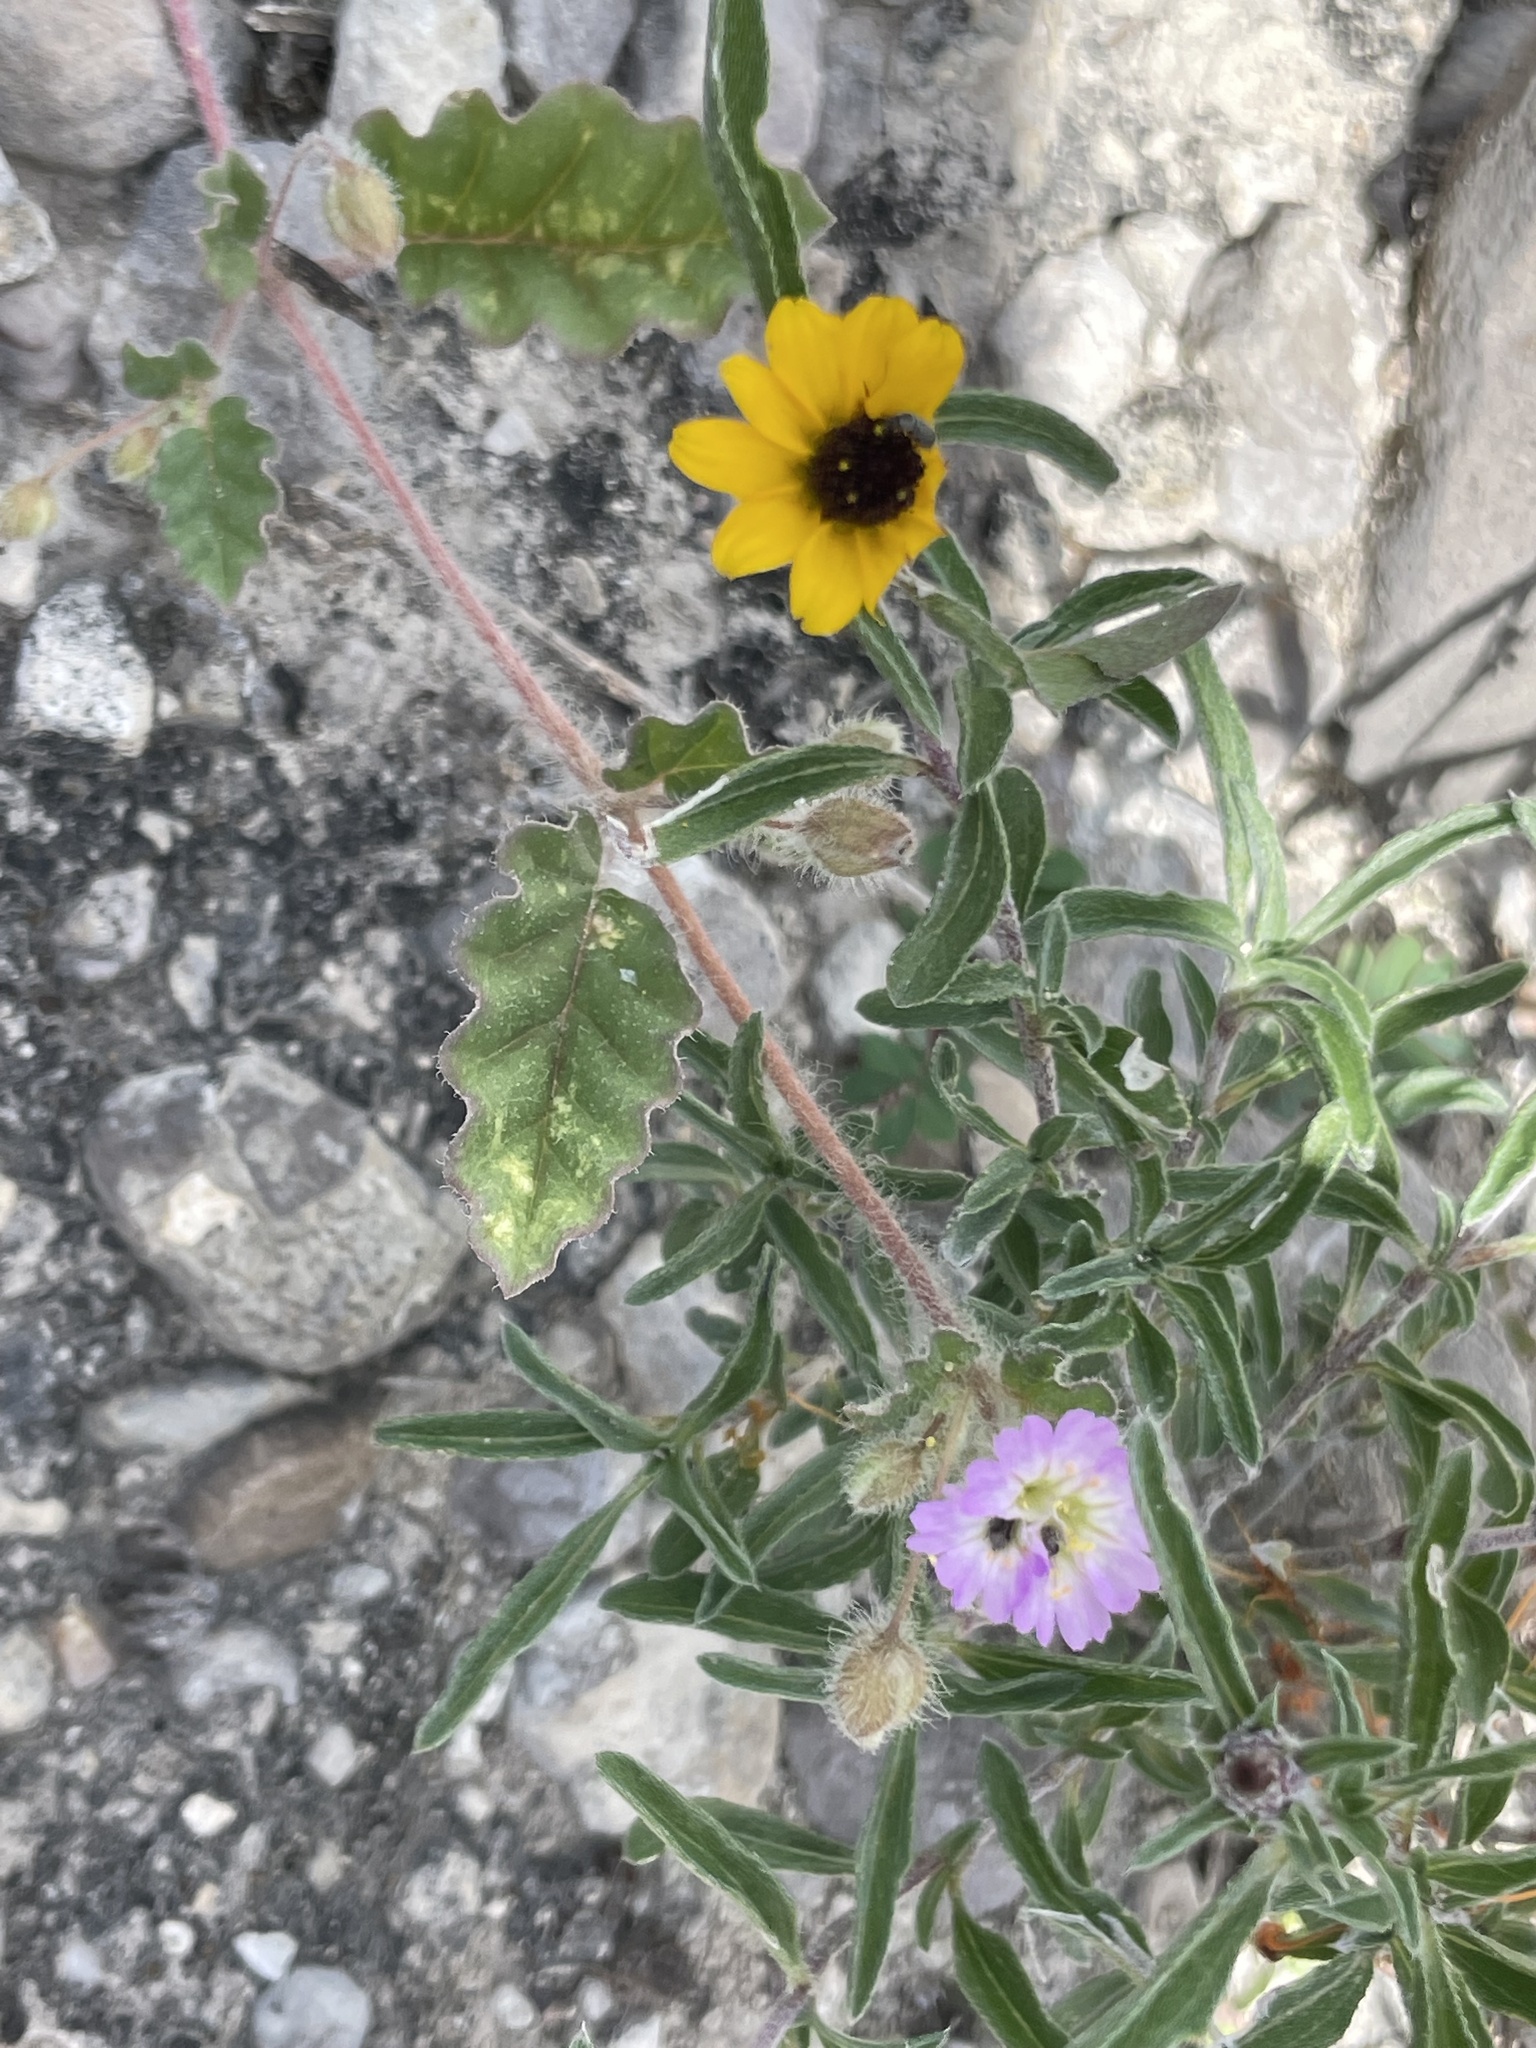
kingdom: Plantae
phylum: Tracheophyta
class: Magnoliopsida
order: Caryophyllales
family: Nyctaginaceae
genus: Allionia
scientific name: Allionia incarnata
